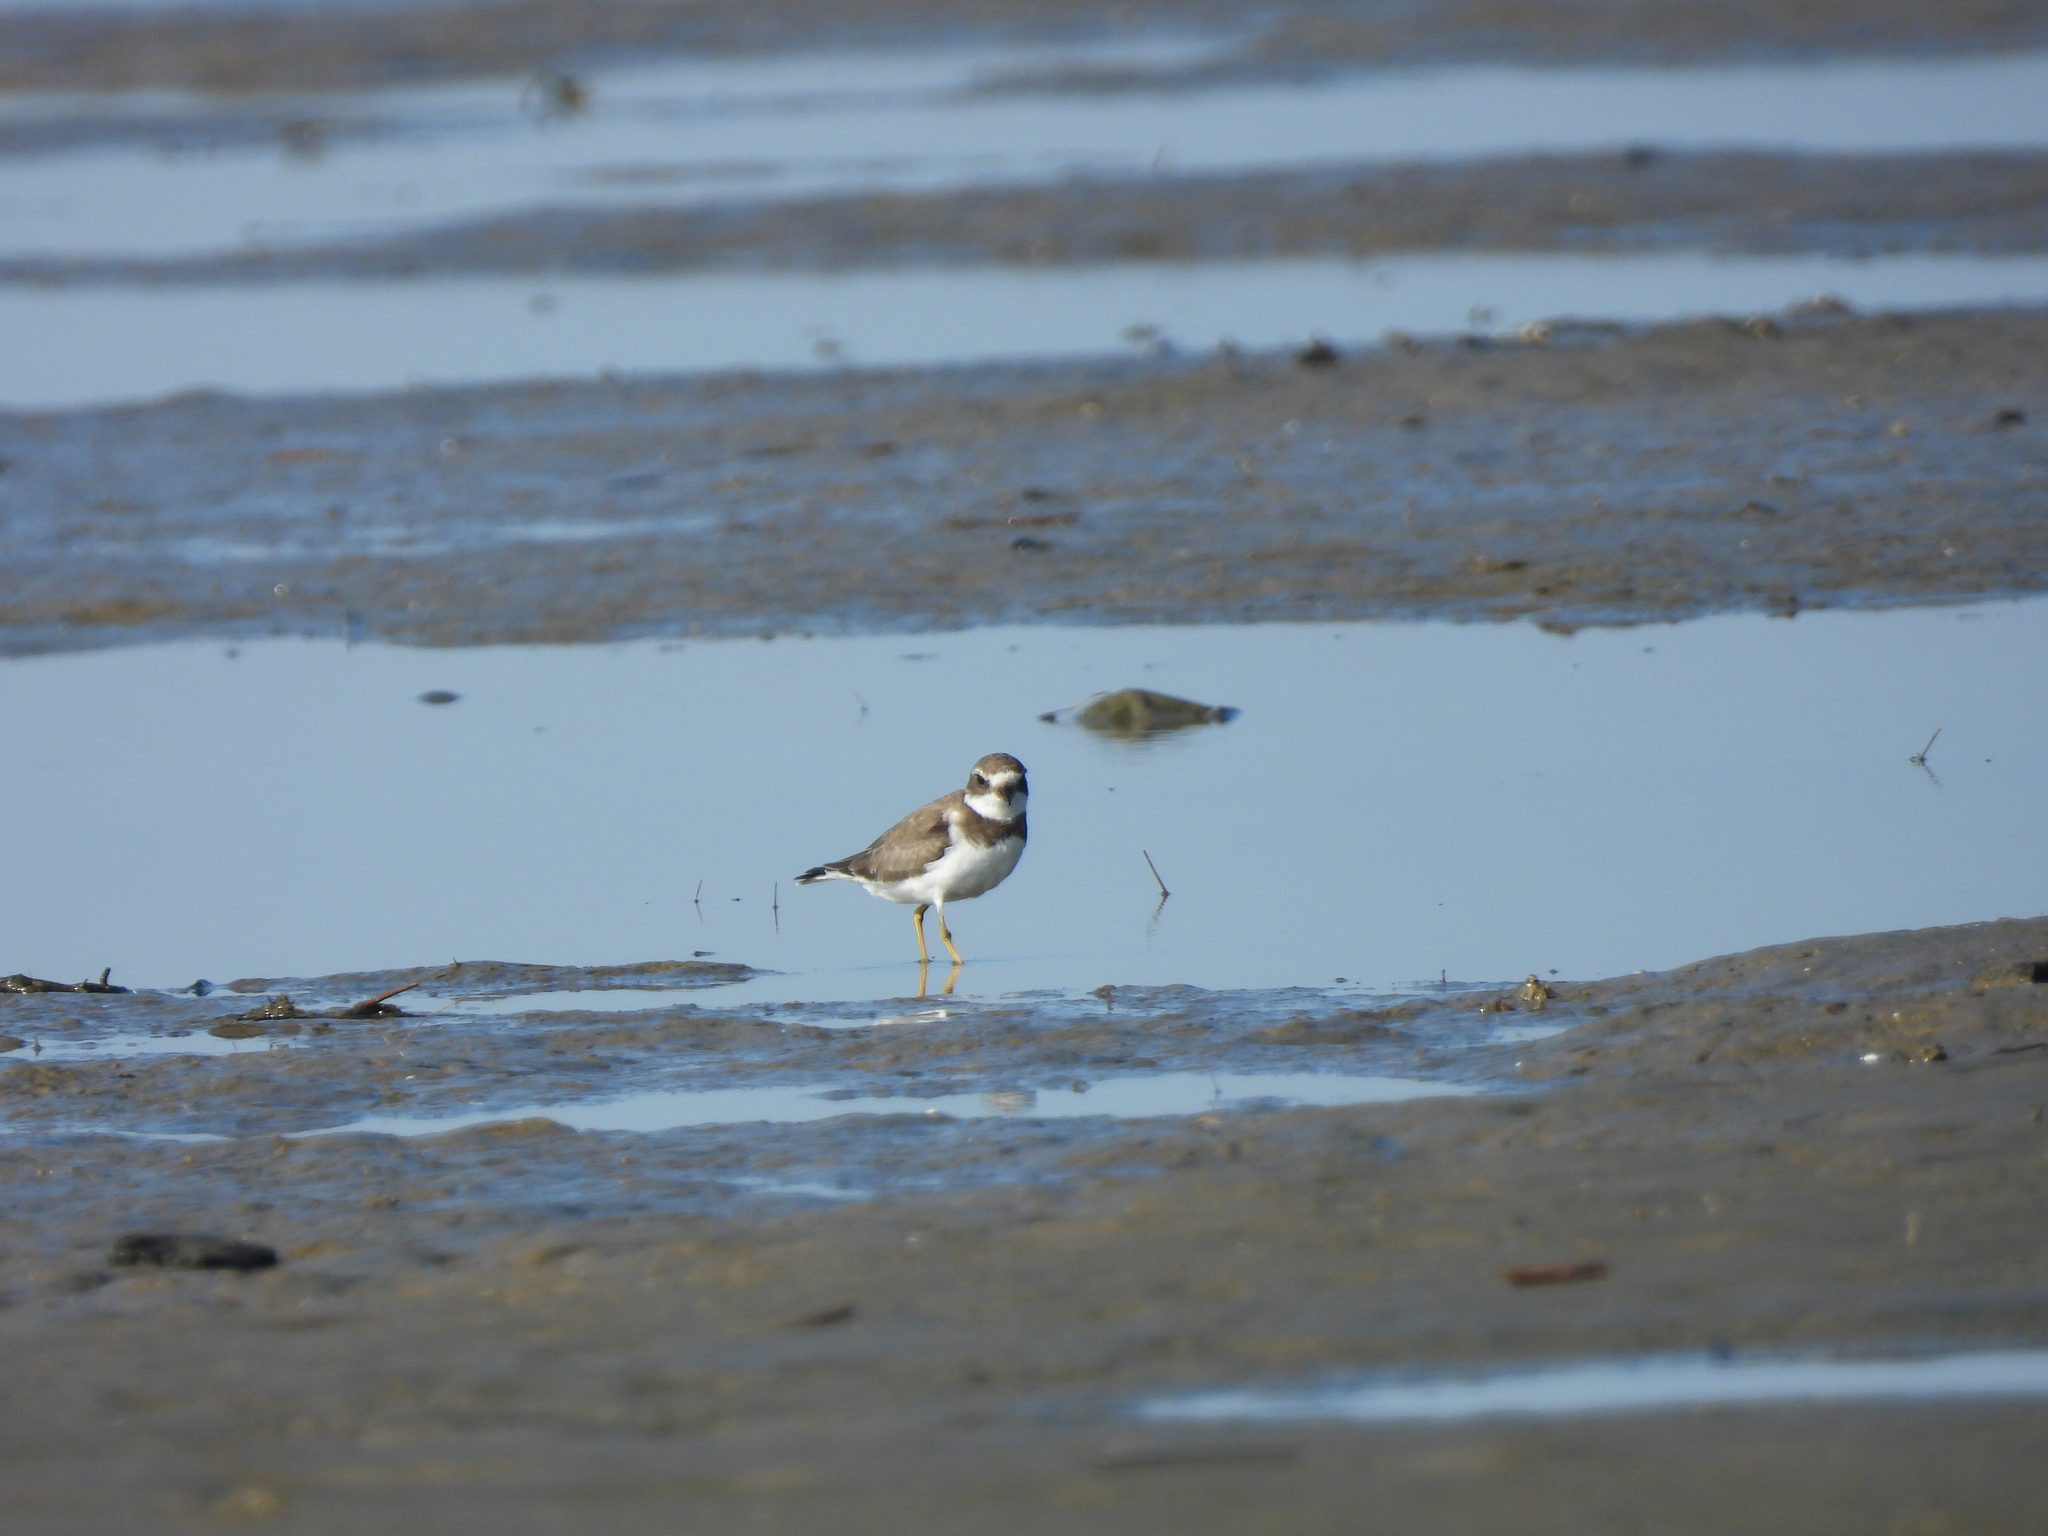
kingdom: Animalia
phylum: Chordata
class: Aves
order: Charadriiformes
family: Charadriidae
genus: Charadrius
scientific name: Charadrius semipalmatus
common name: Semipalmated plover
